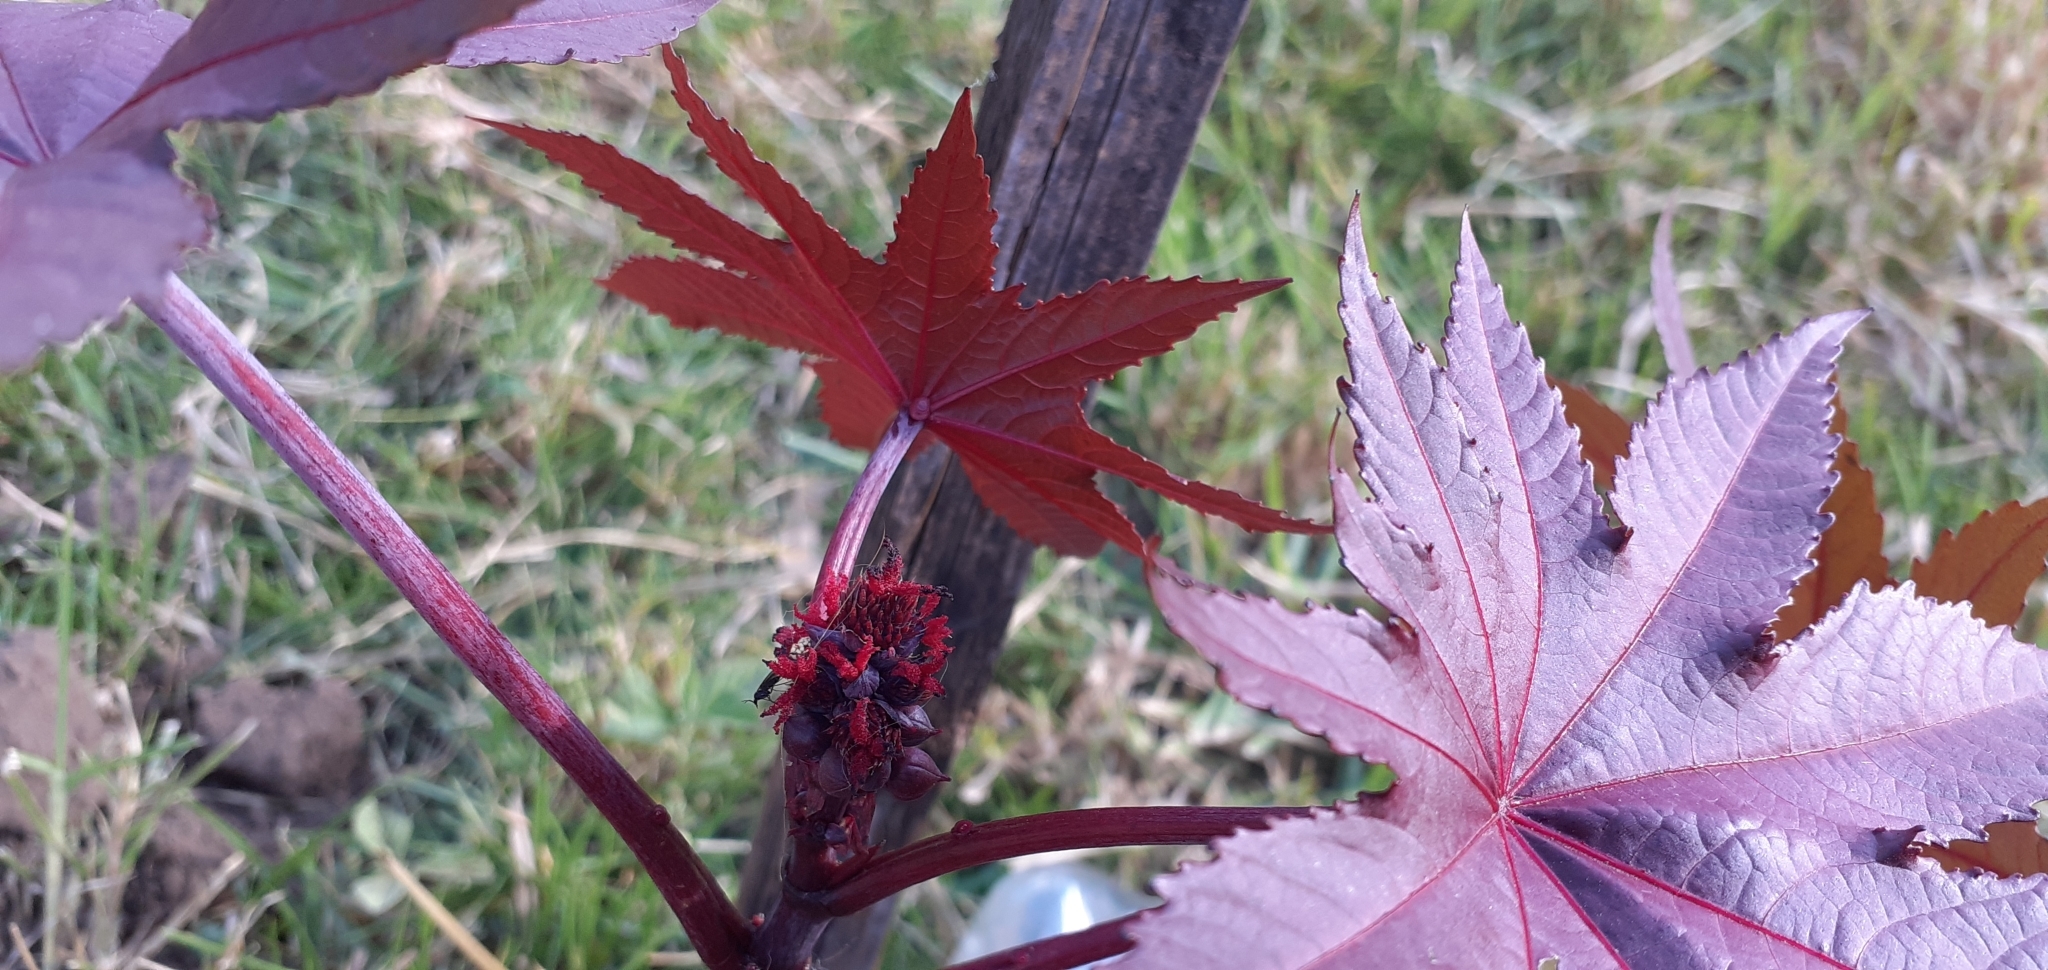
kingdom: Plantae
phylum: Tracheophyta
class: Magnoliopsida
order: Malpighiales
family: Euphorbiaceae
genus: Ricinus
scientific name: Ricinus communis
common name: Castor-oil-plant
